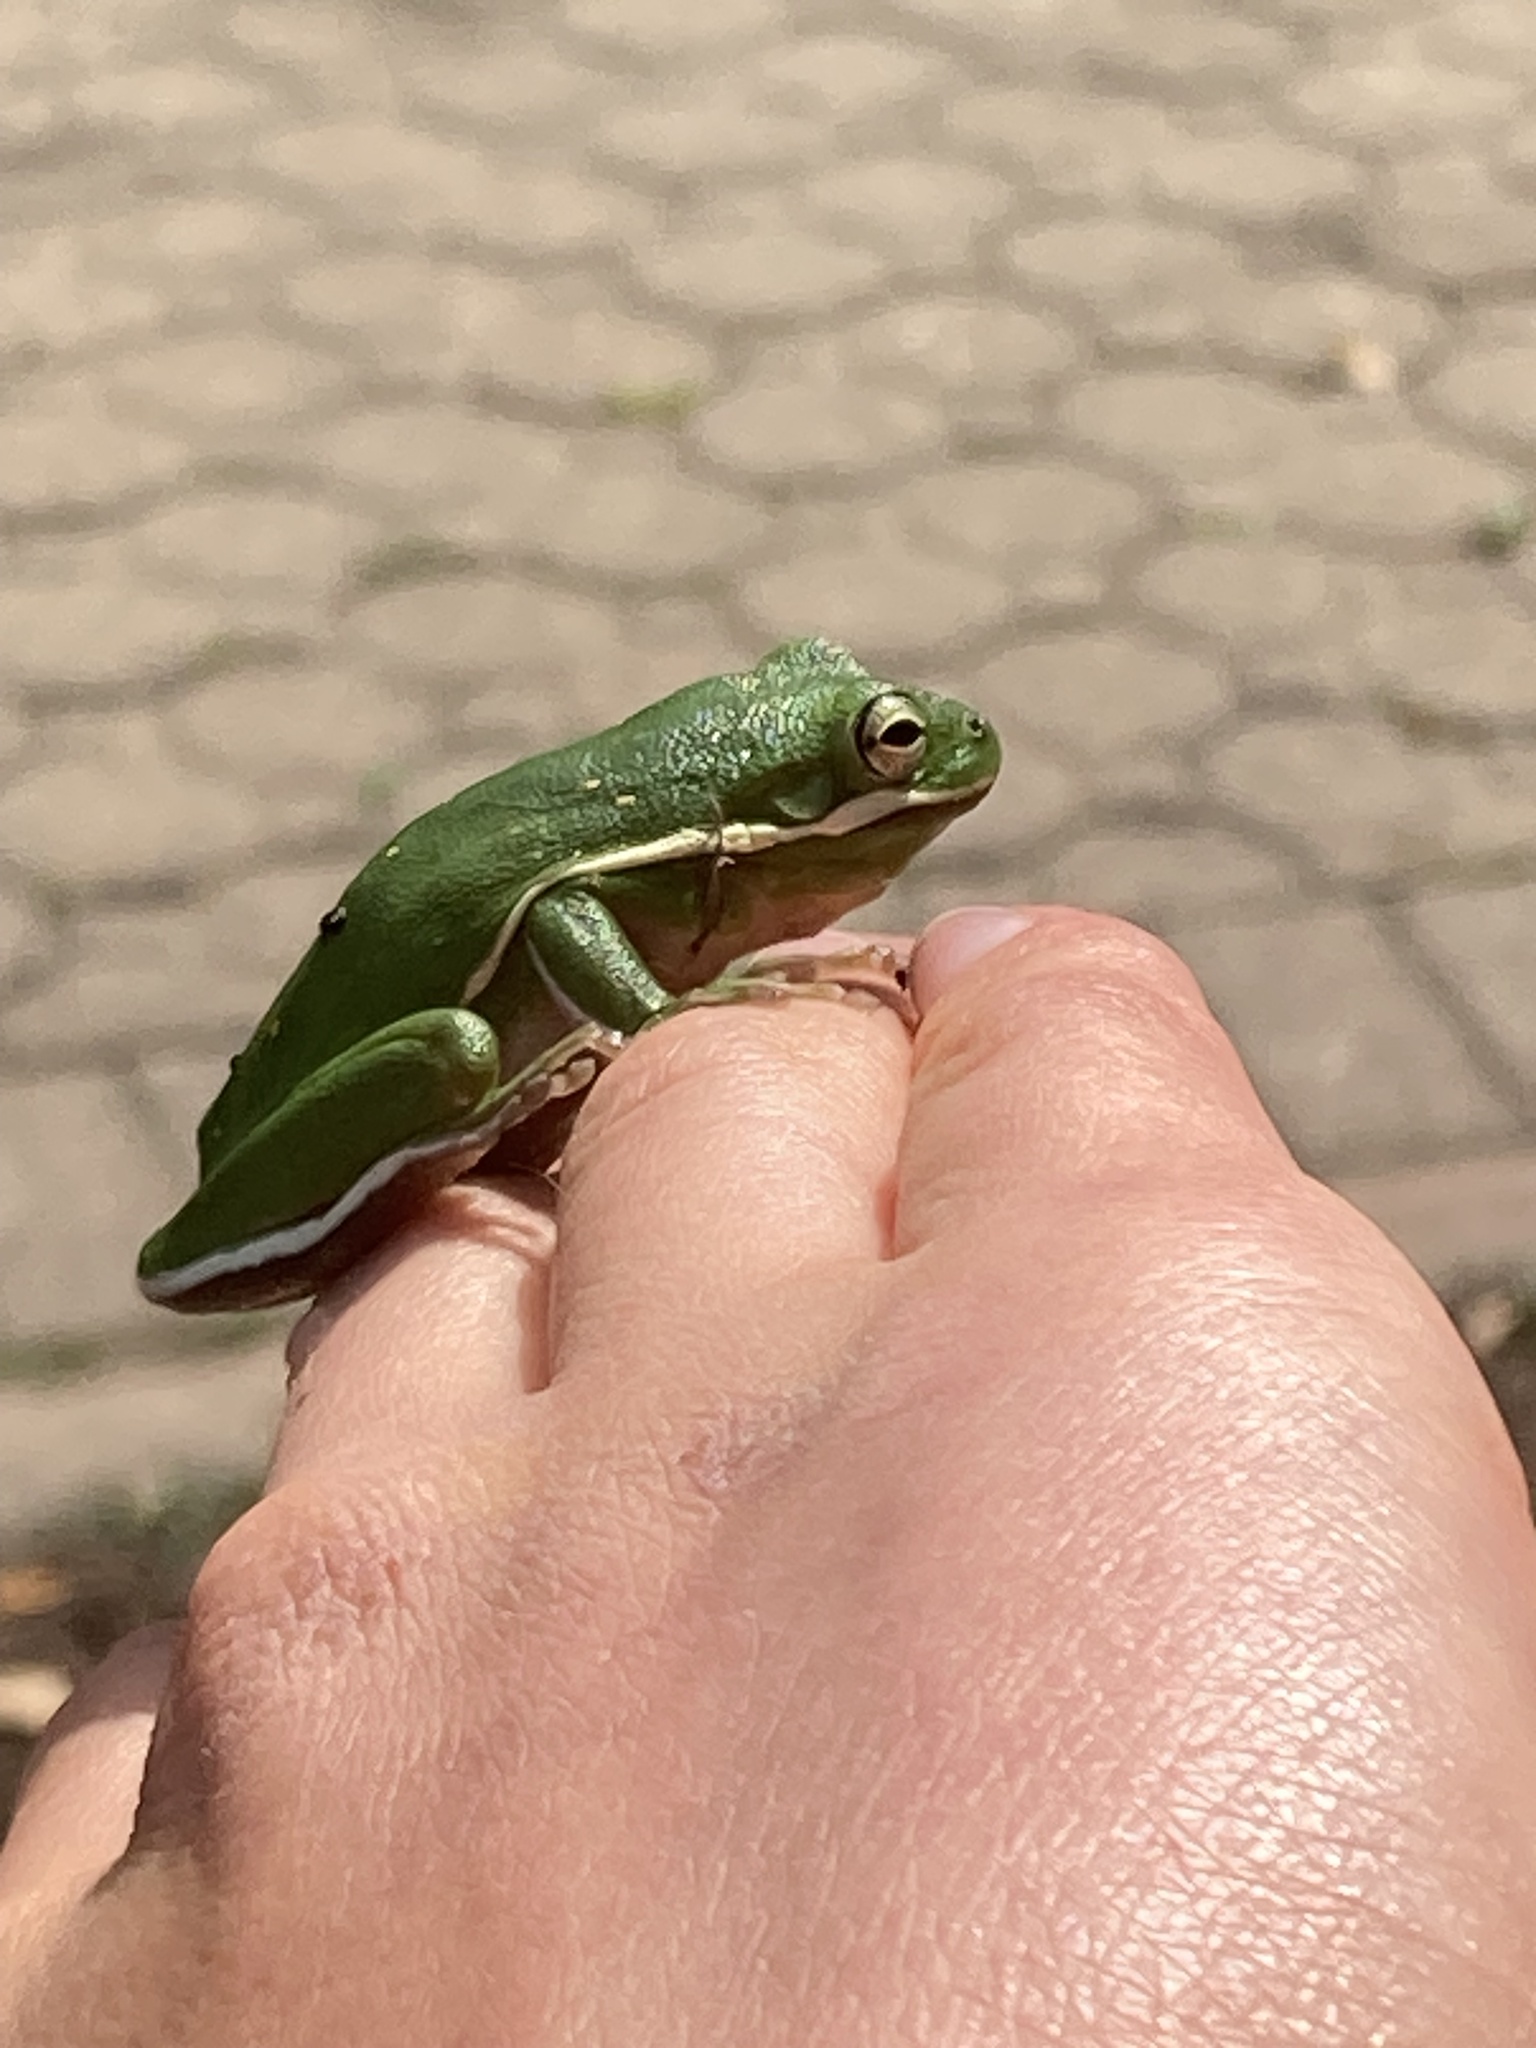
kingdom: Animalia
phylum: Chordata
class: Amphibia
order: Anura
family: Hylidae
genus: Dryophytes
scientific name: Dryophytes cinereus
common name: Green treefrog
